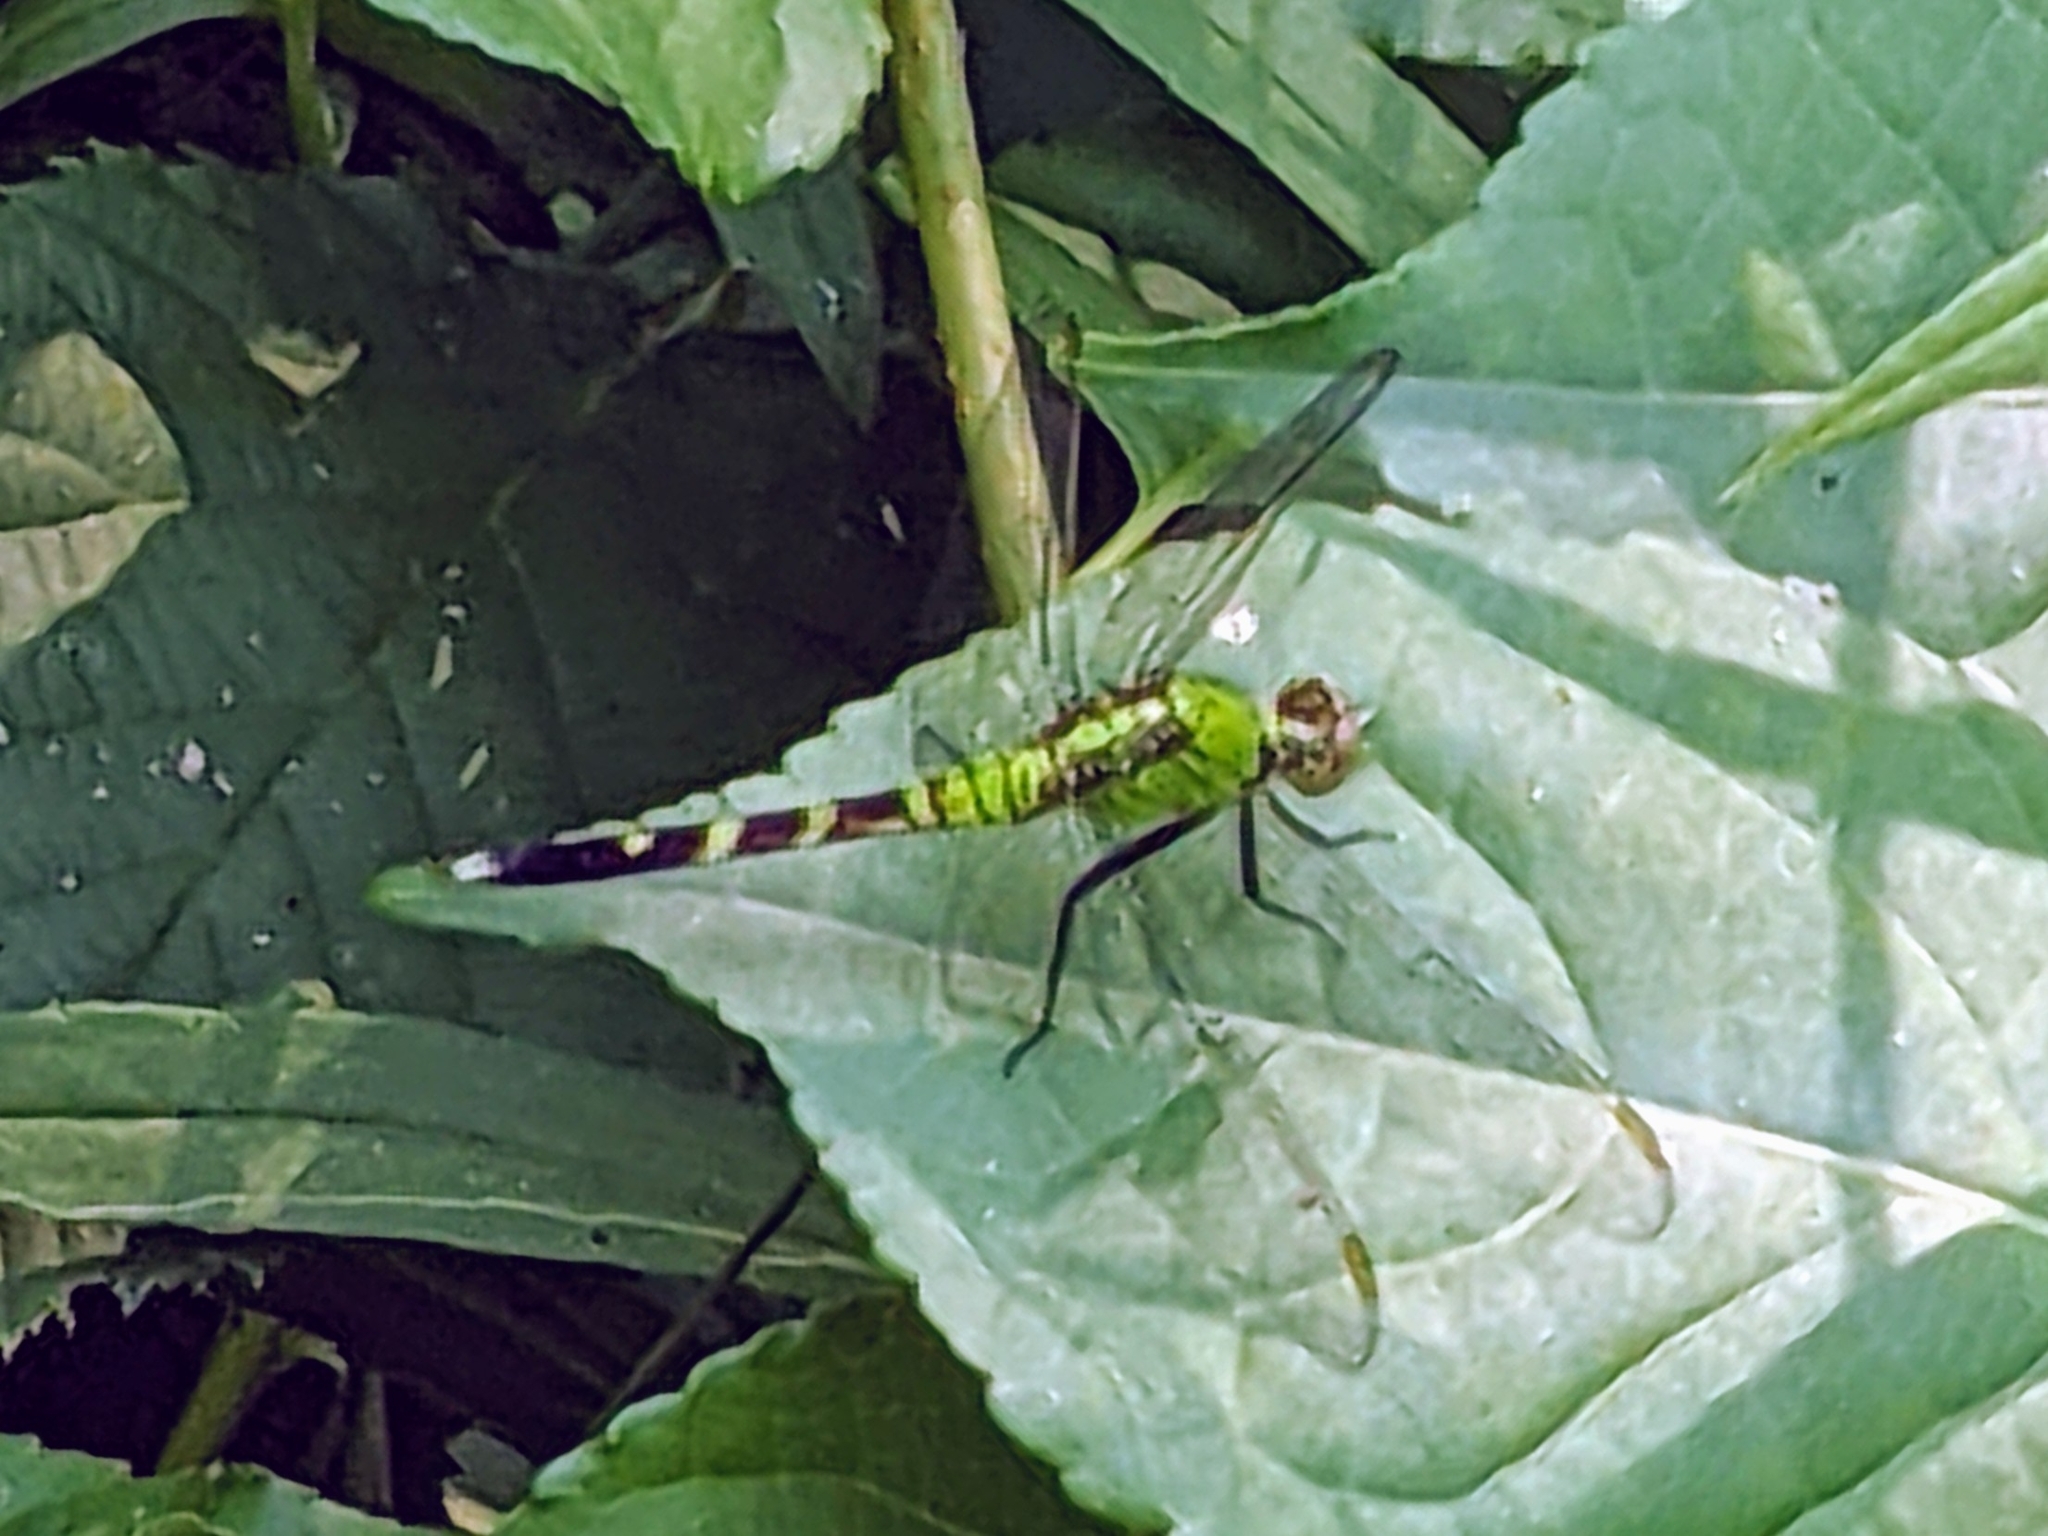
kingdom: Animalia
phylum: Arthropoda
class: Insecta
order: Odonata
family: Libellulidae
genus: Erythemis
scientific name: Erythemis simplicicollis
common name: Eastern pondhawk
